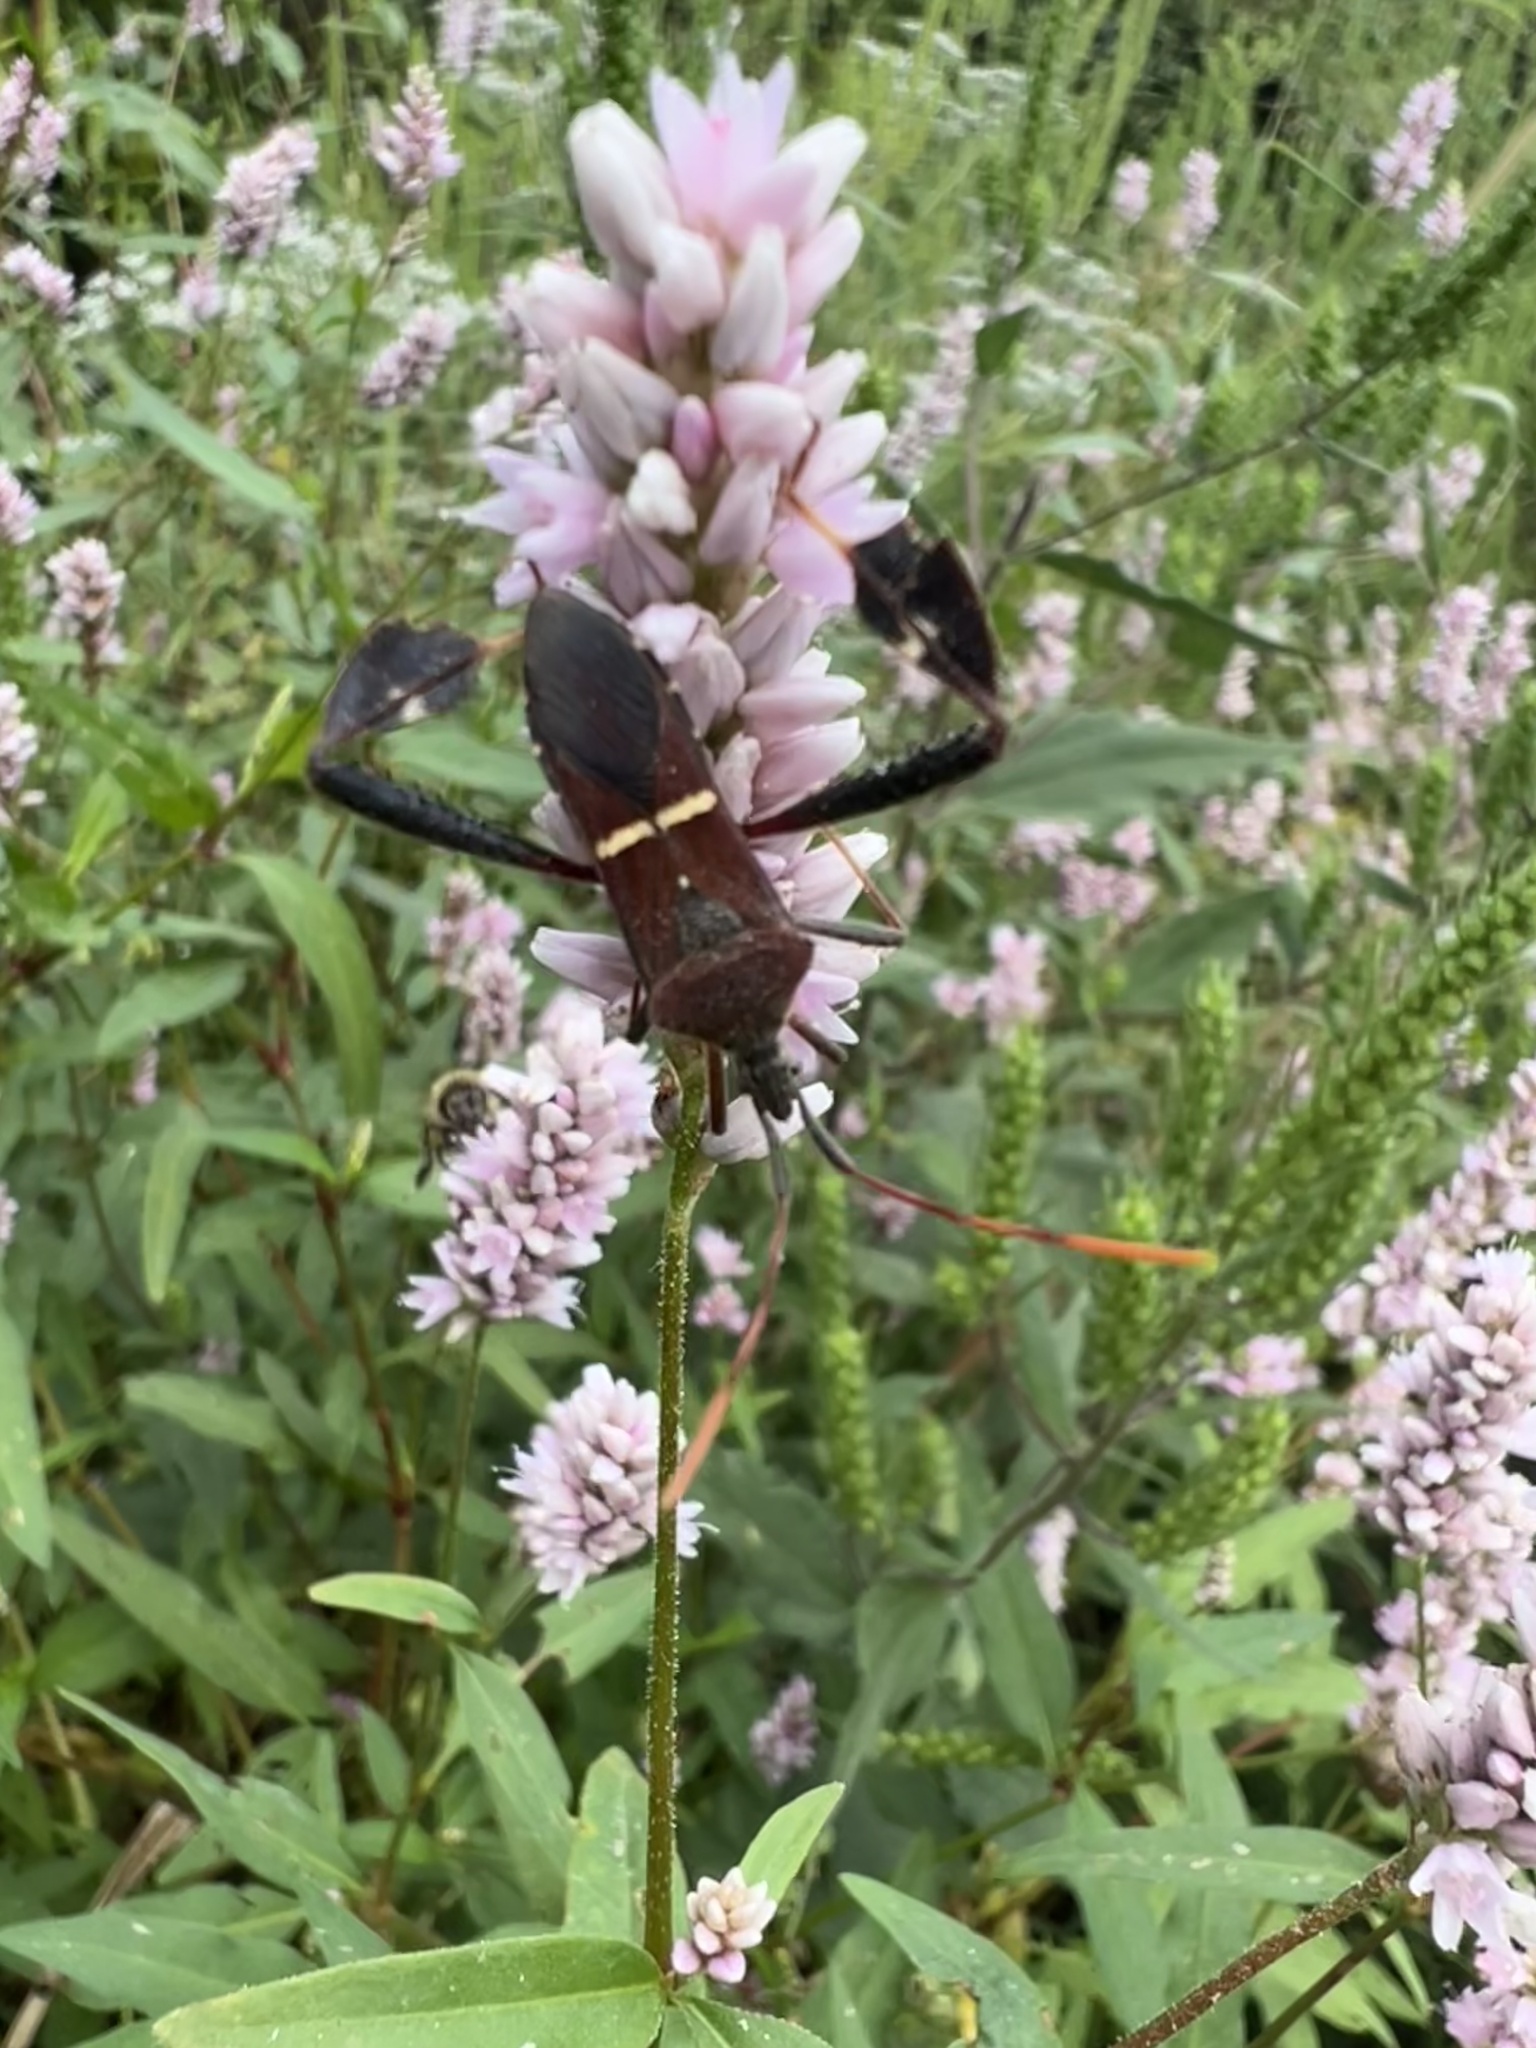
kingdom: Animalia
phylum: Arthropoda
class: Insecta
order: Hemiptera
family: Coreidae
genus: Leptoglossus
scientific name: Leptoglossus phyllopus
